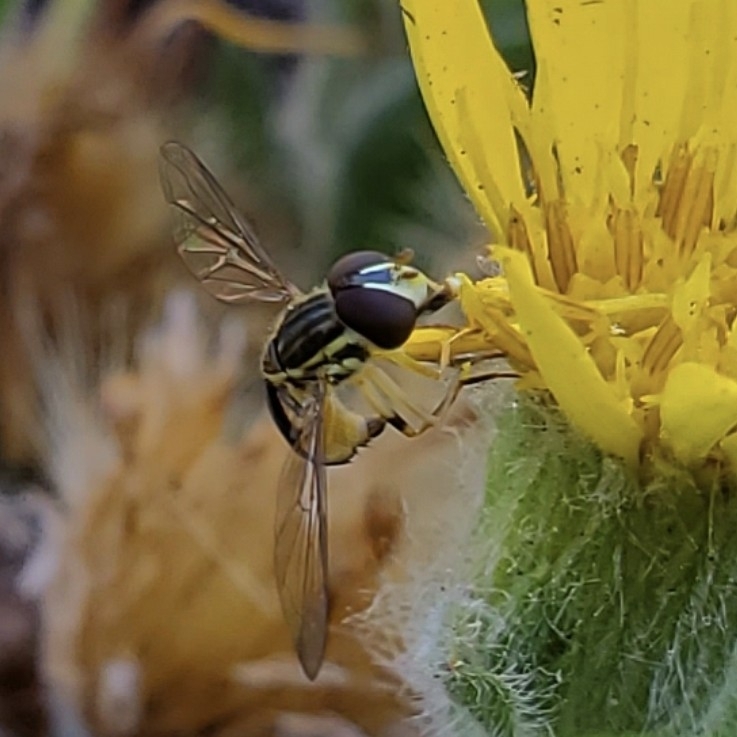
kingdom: Animalia
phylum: Arthropoda
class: Insecta
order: Diptera
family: Syrphidae
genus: Toxomerus
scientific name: Toxomerus occidentalis
